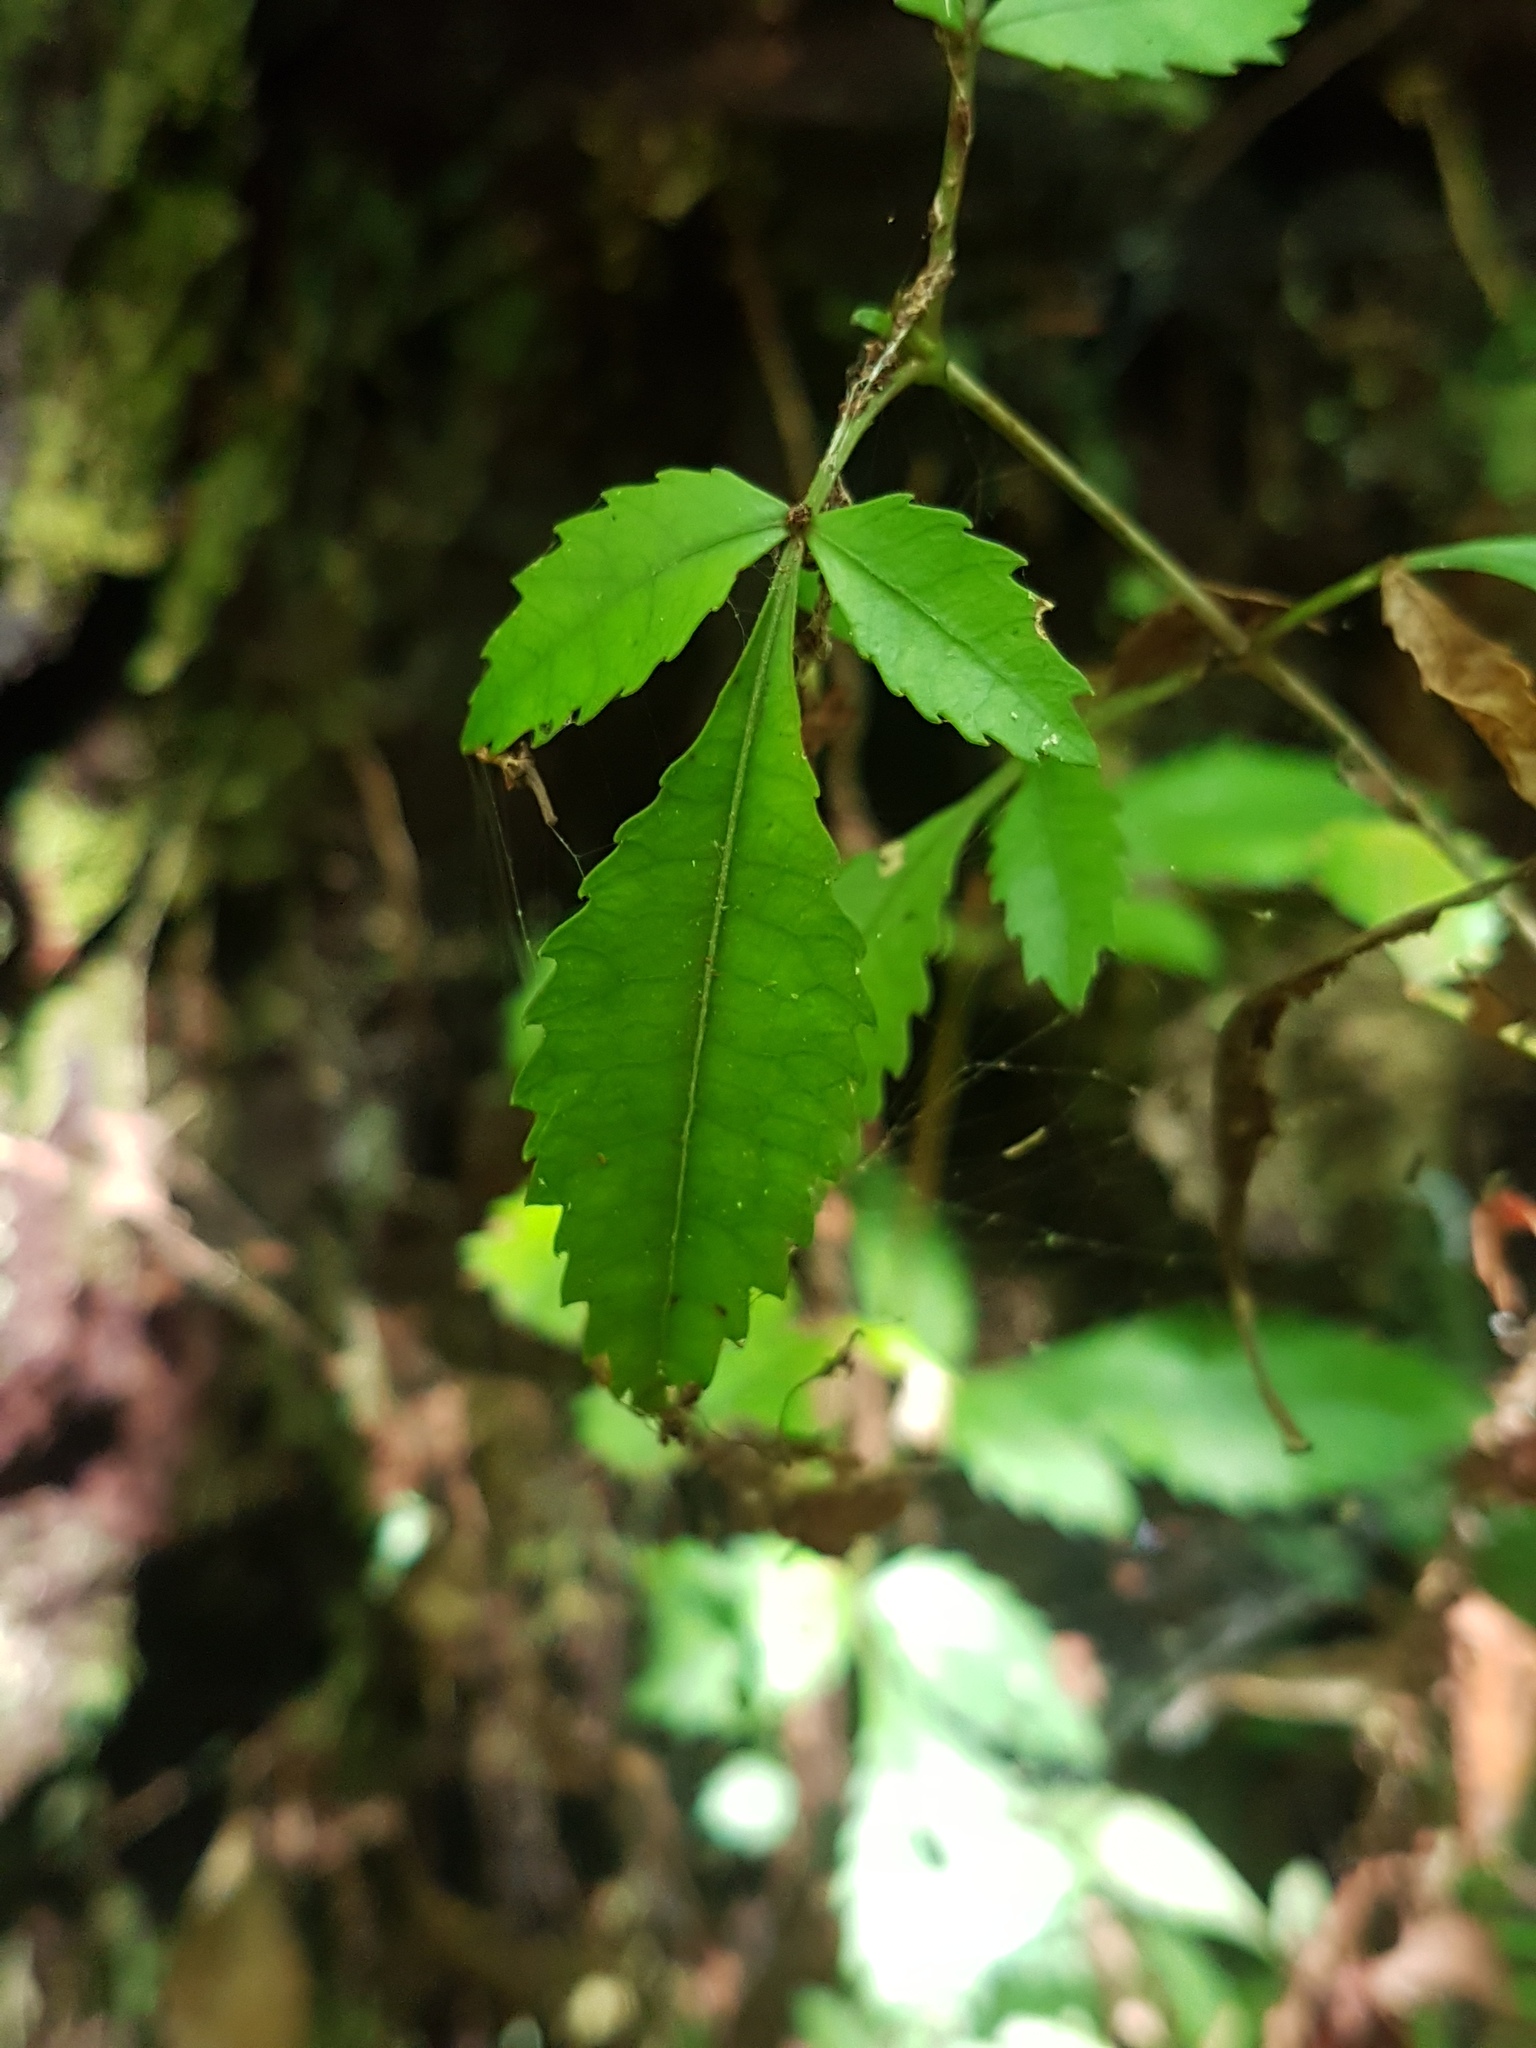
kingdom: Plantae
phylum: Tracheophyta
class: Magnoliopsida
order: Oxalidales
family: Cunoniaceae
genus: Pterophylla
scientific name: Pterophylla racemosa
